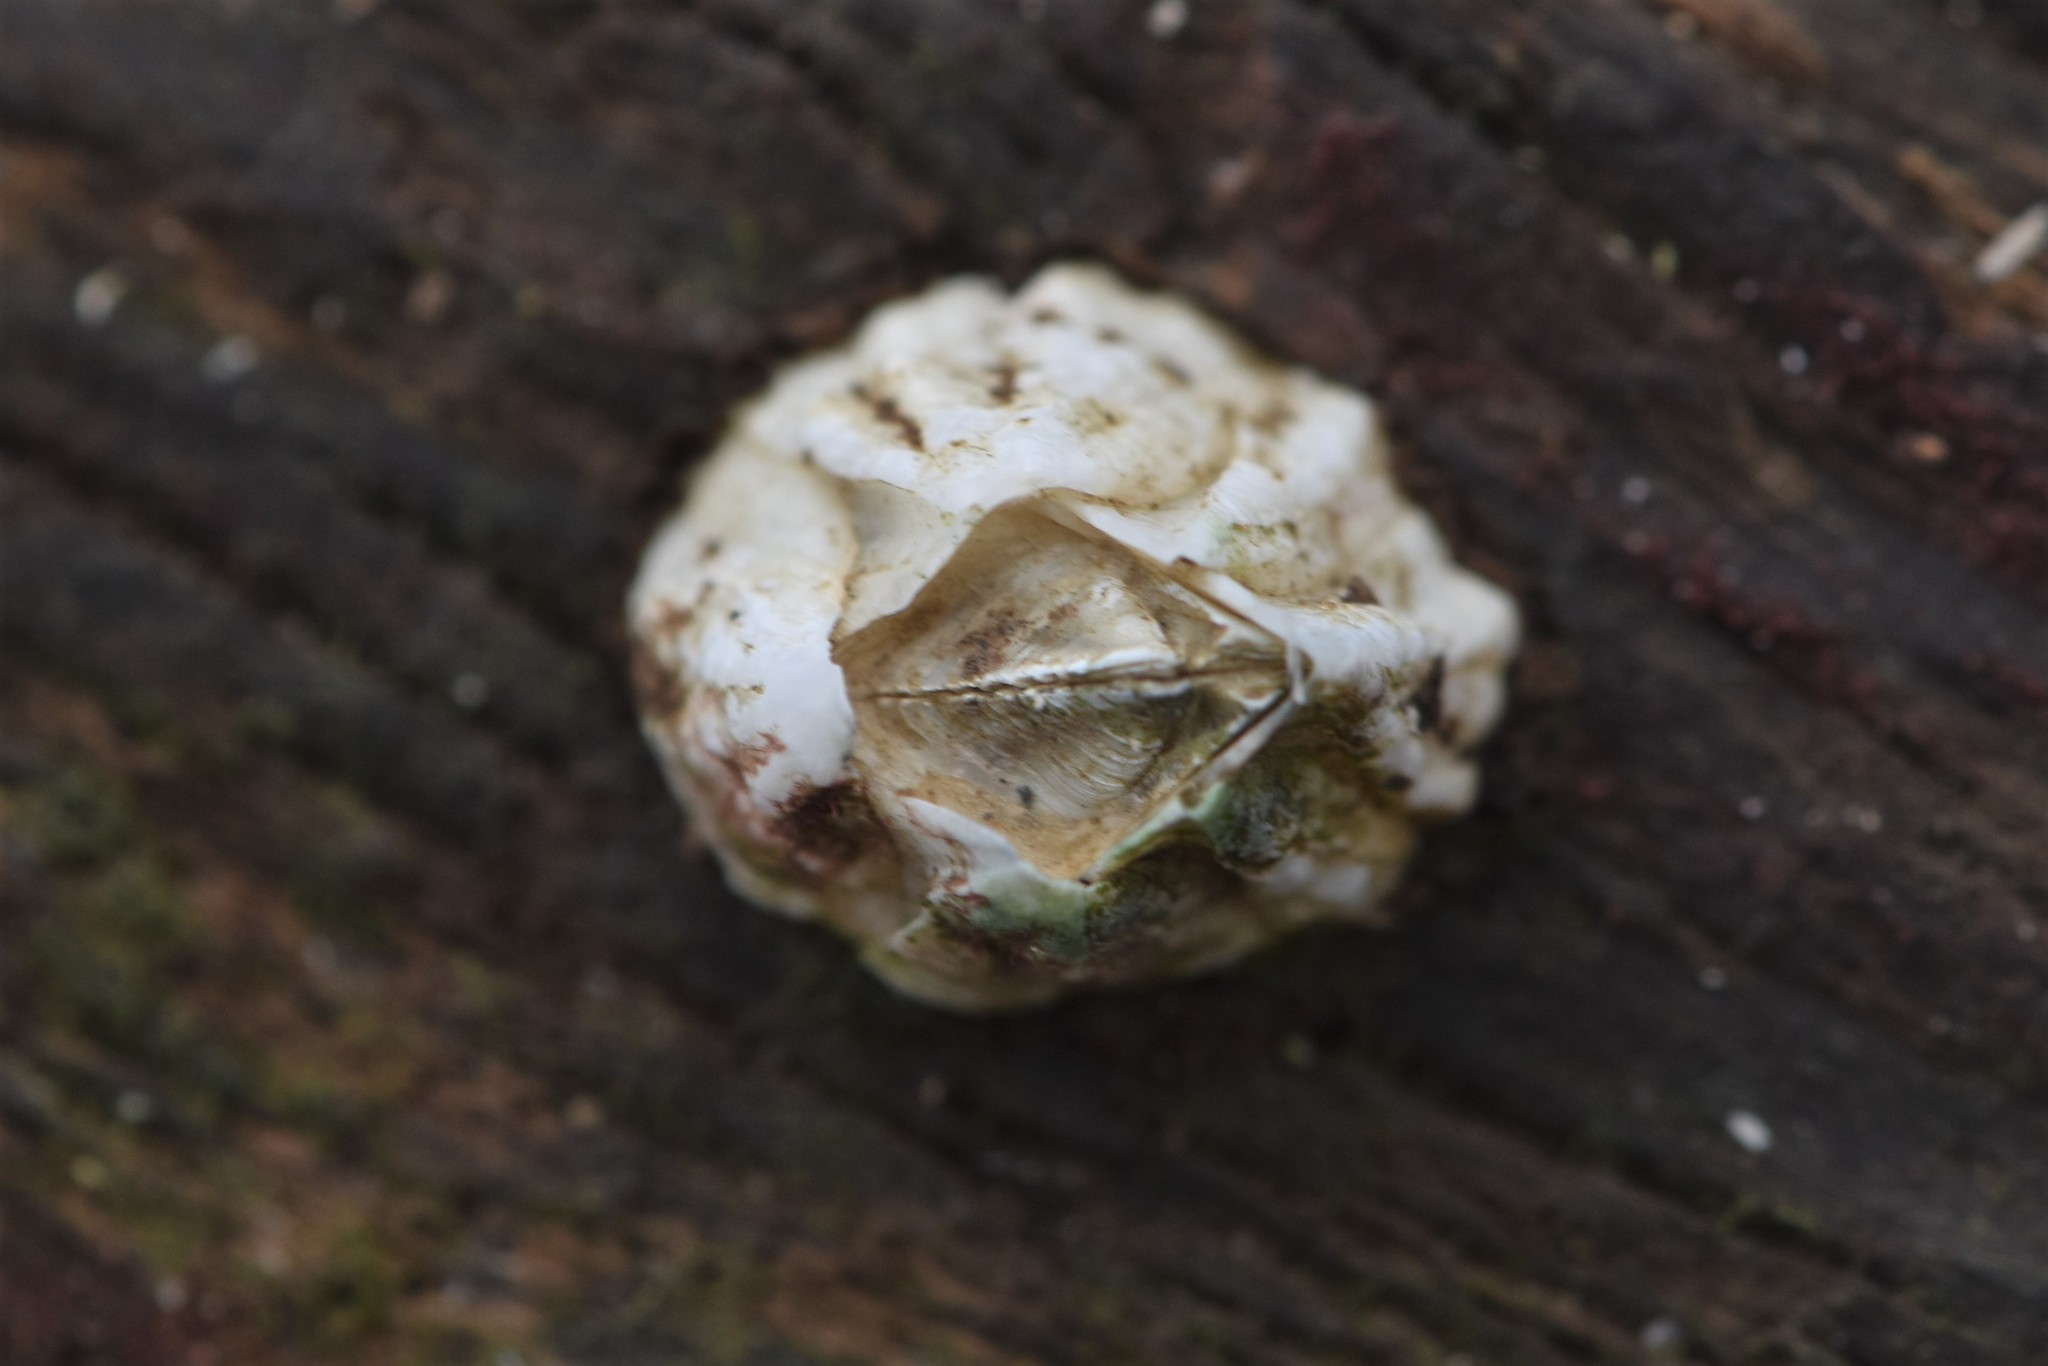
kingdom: Animalia
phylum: Arthropoda
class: Maxillopoda
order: Sessilia
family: Balanidae
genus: Balanus
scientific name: Balanus glandula
